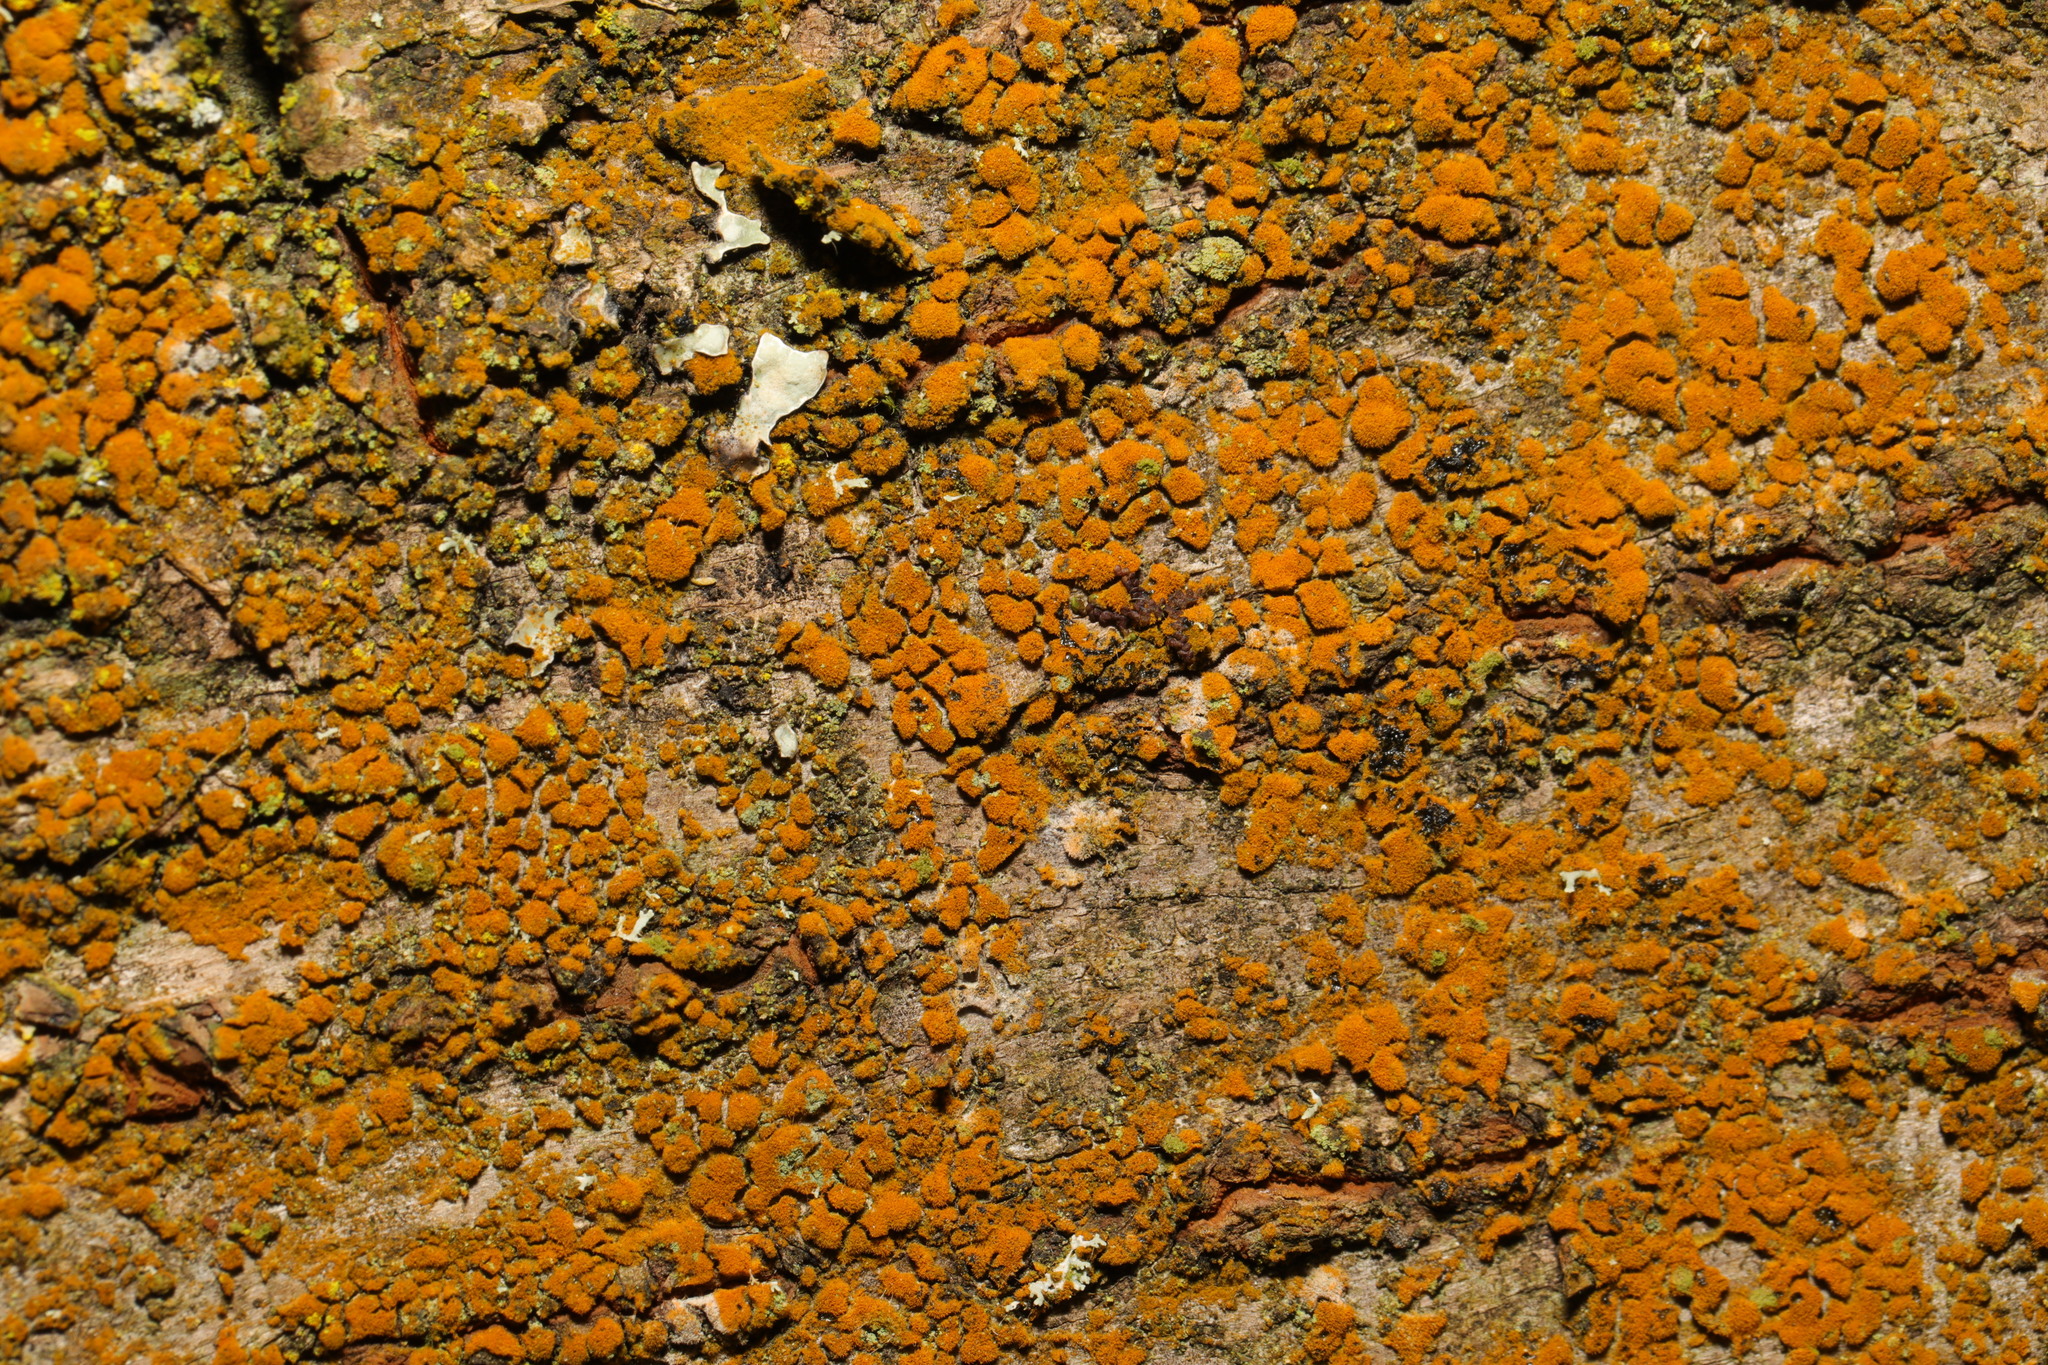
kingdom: Plantae
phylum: Chlorophyta
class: Ulvophyceae
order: Trentepohliales
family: Trentepohliaceae
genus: Trentepohlia
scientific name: Trentepohlia
